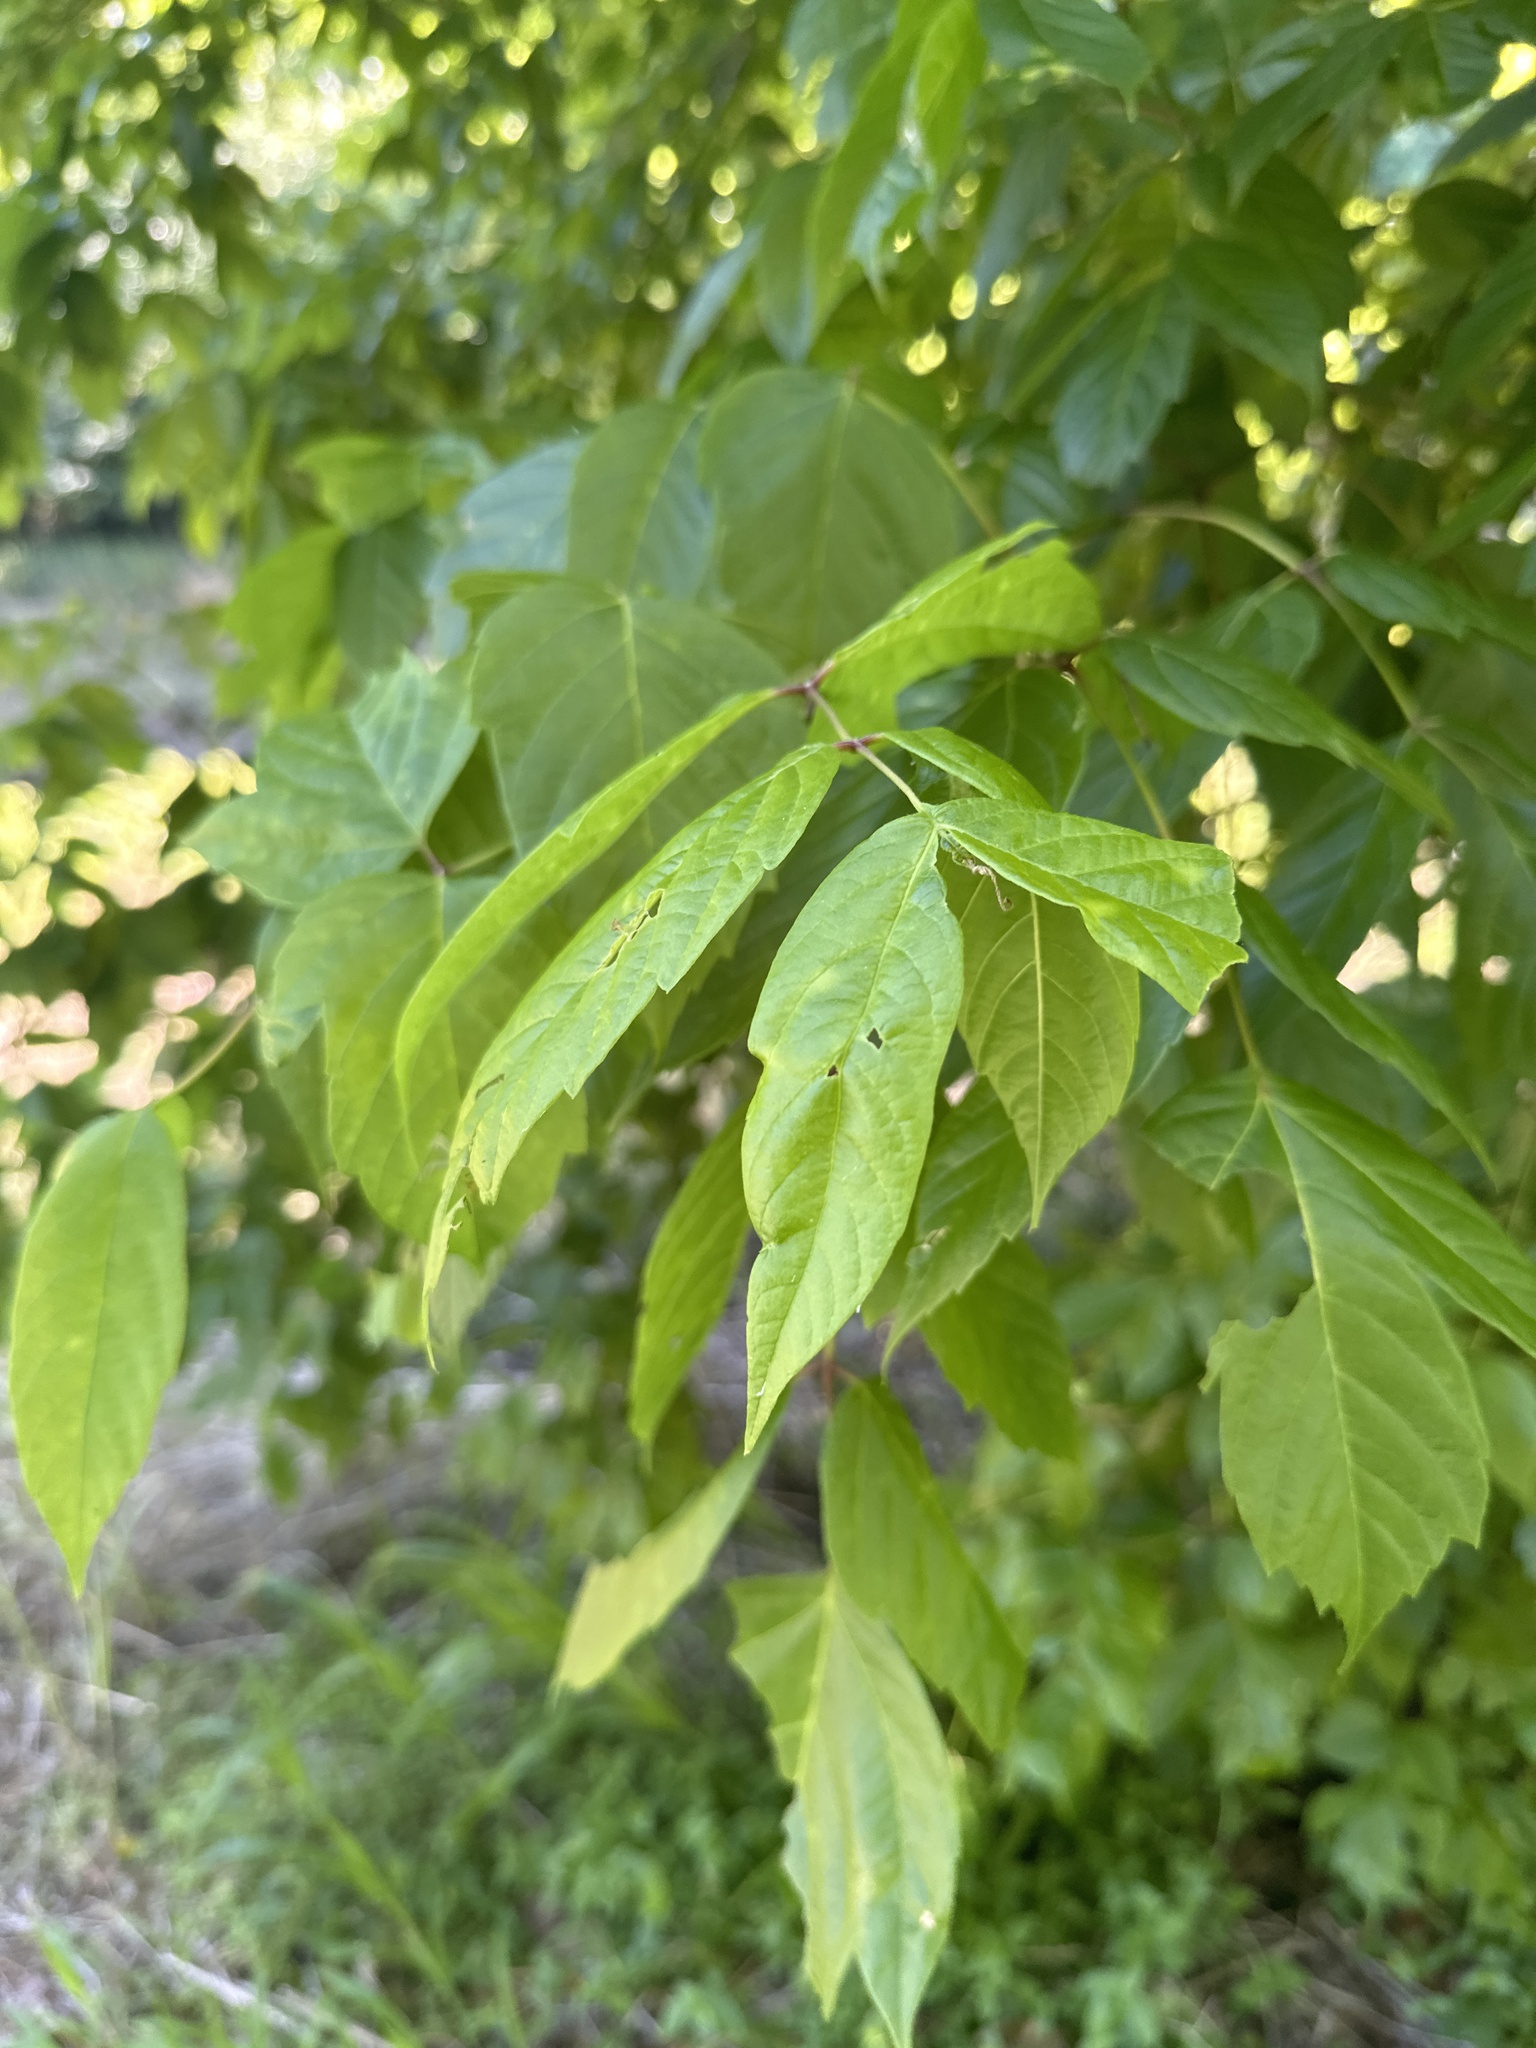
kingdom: Plantae
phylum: Tracheophyta
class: Magnoliopsida
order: Sapindales
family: Sapindaceae
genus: Acer
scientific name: Acer negundo
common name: Ashleaf maple
